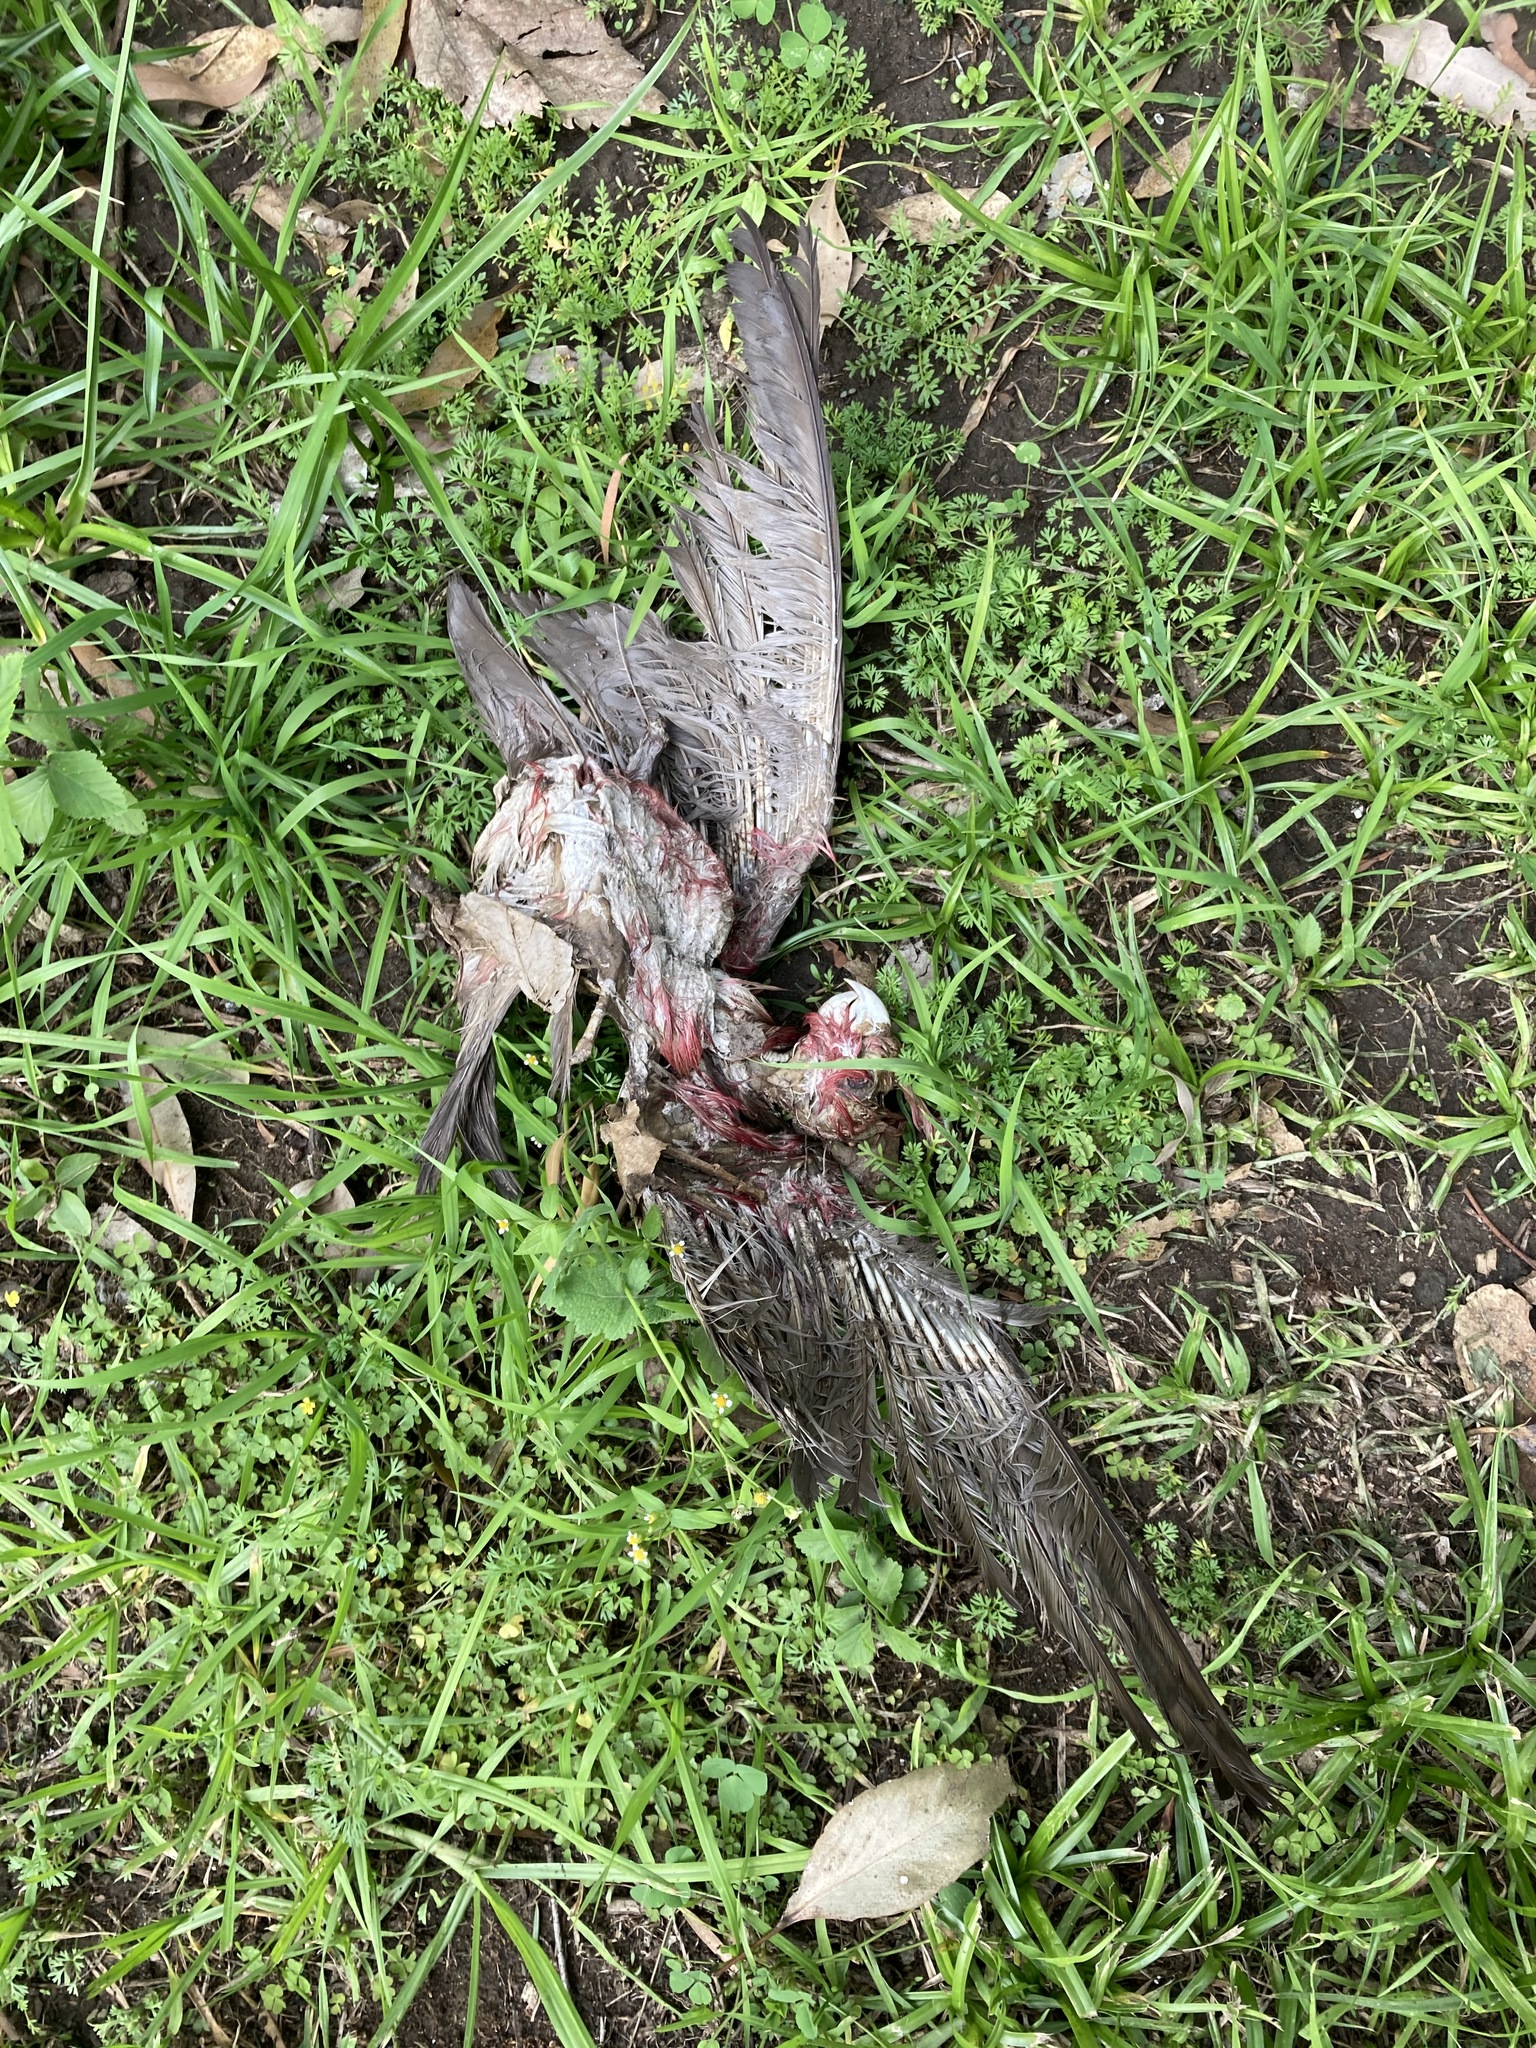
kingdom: Animalia
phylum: Chordata
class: Aves
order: Psittaciformes
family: Psittacidae
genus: Eolophus
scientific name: Eolophus roseicapilla
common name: Galah
